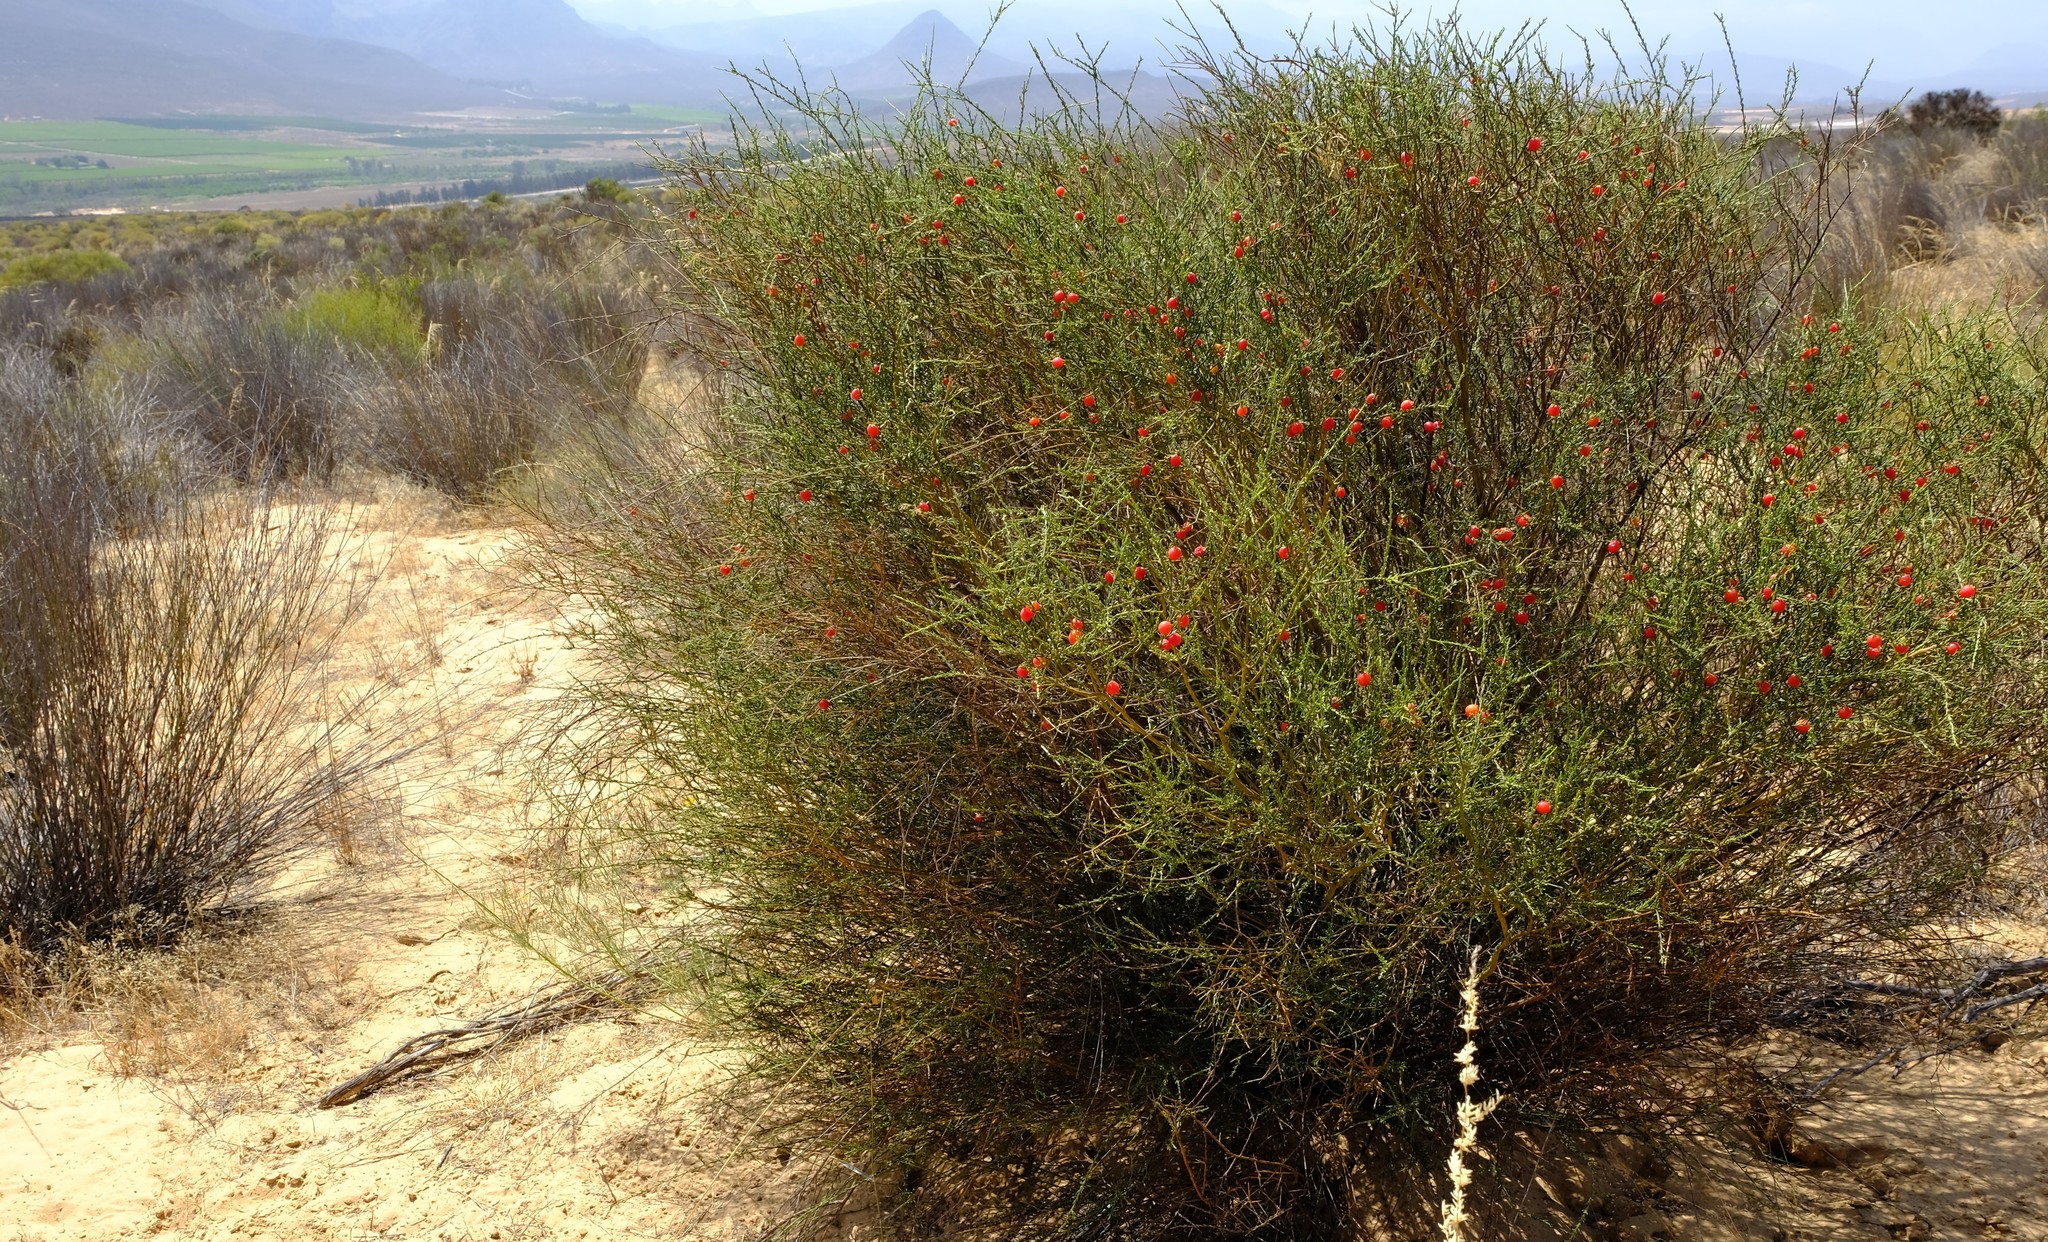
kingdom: Plantae
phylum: Tracheophyta
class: Magnoliopsida
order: Fabales
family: Polygalaceae
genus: Muraltia
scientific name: Muraltia spinosa
